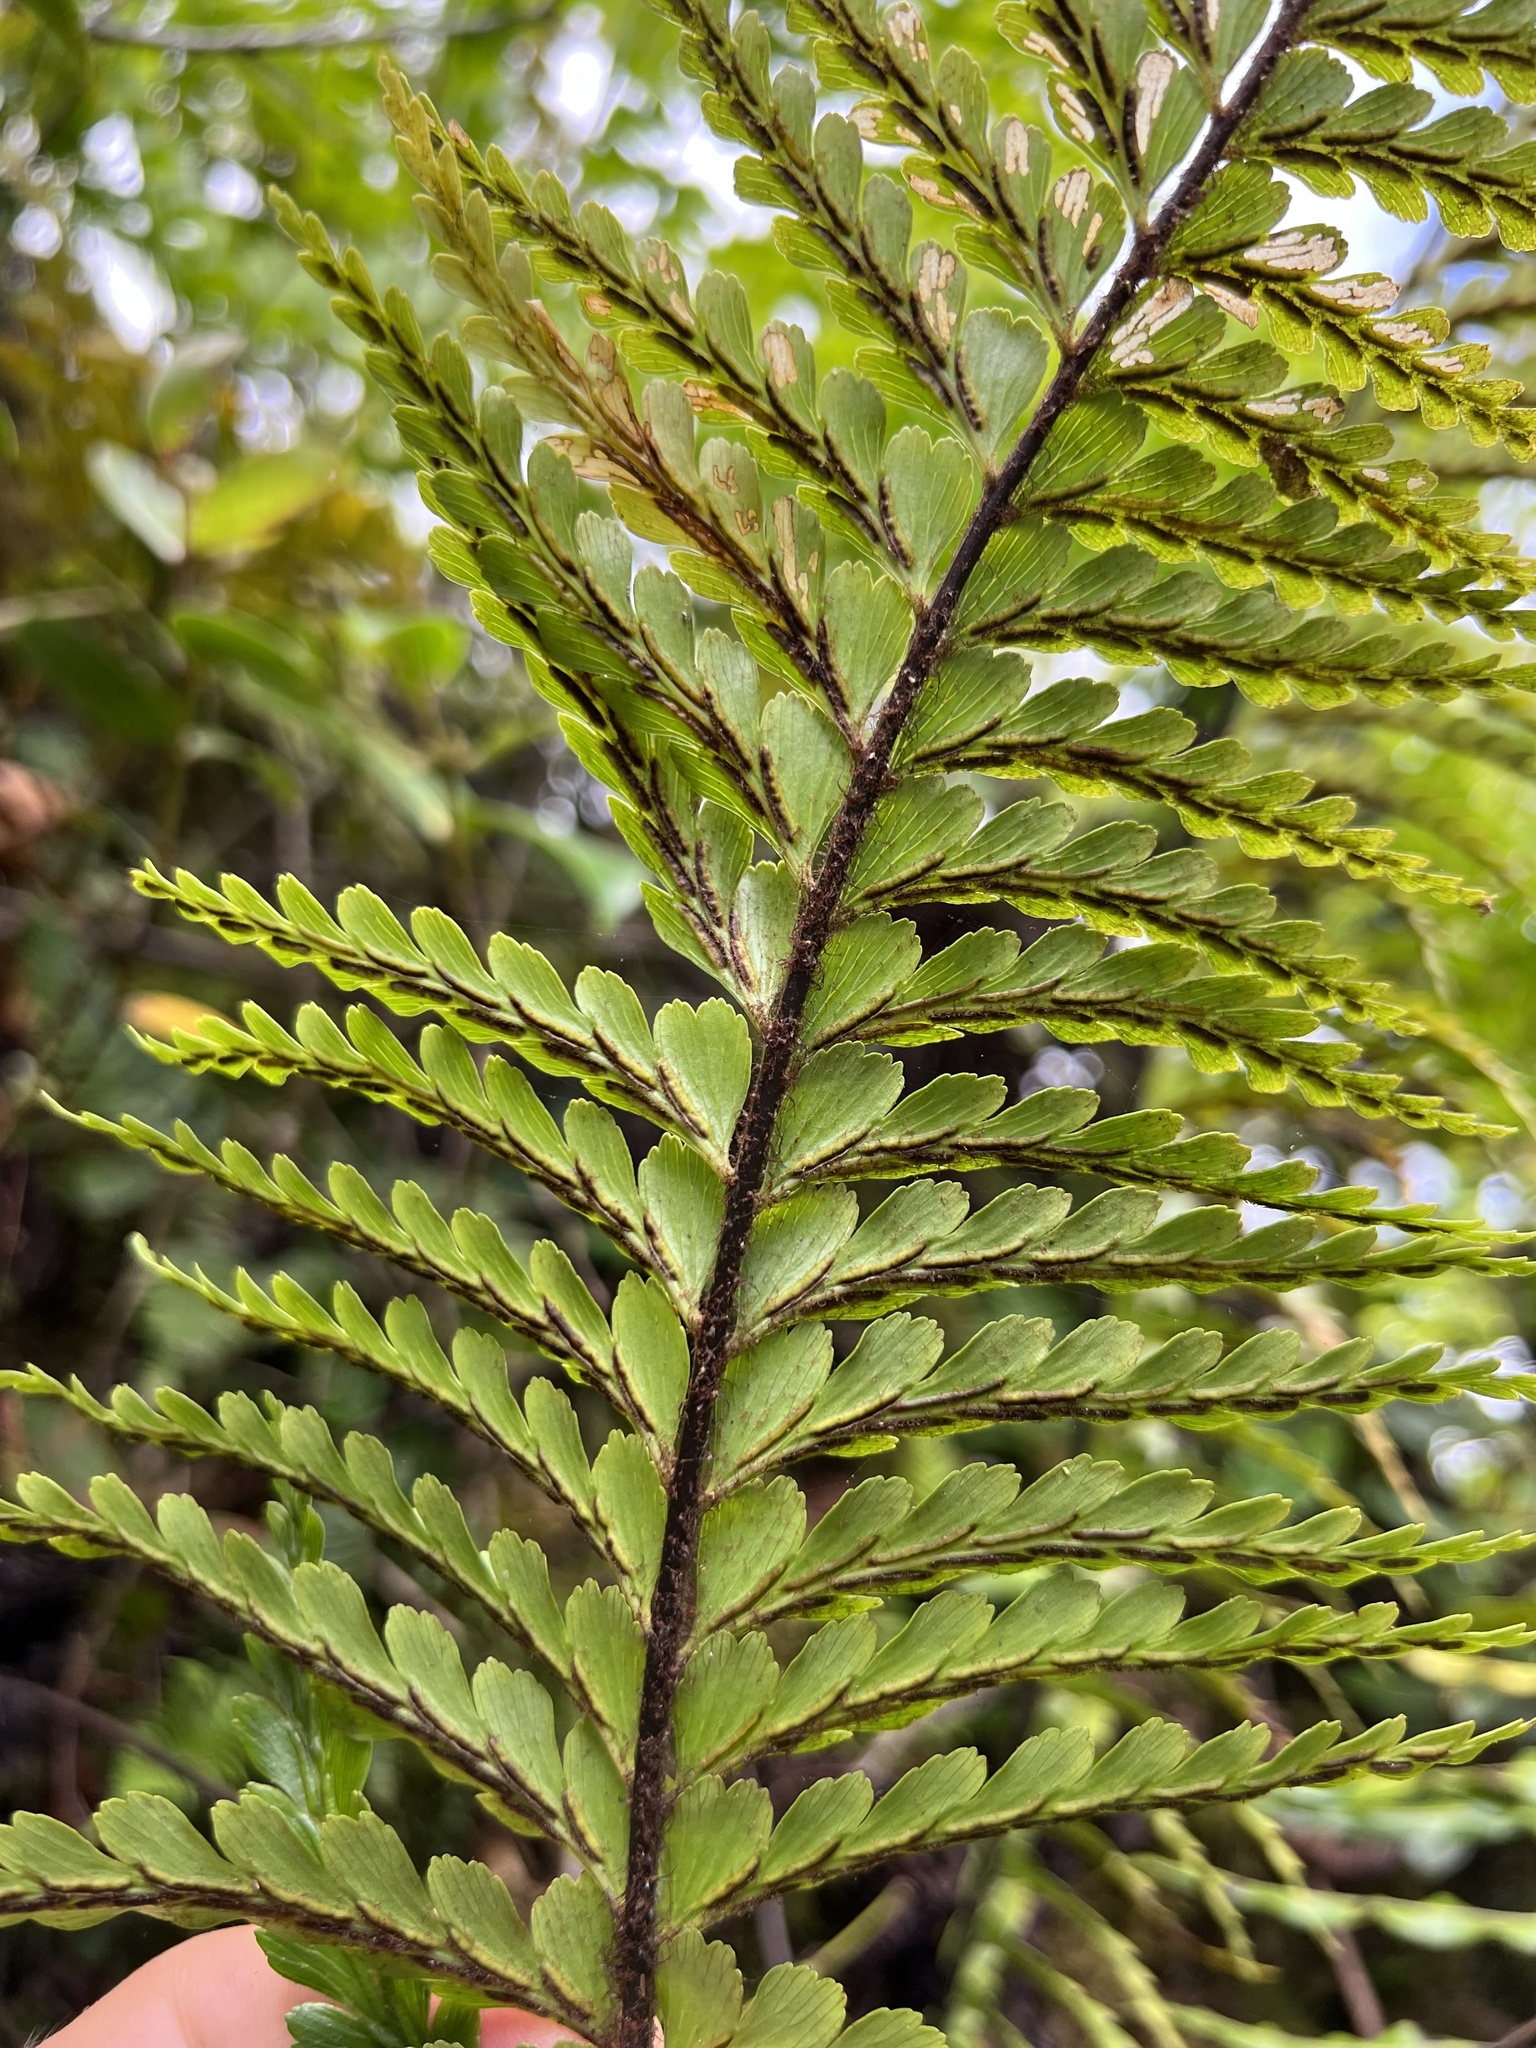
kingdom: Plantae
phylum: Tracheophyta
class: Polypodiopsida
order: Polypodiales
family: Aspleniaceae
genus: Asplenium
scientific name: Asplenium caudatum
